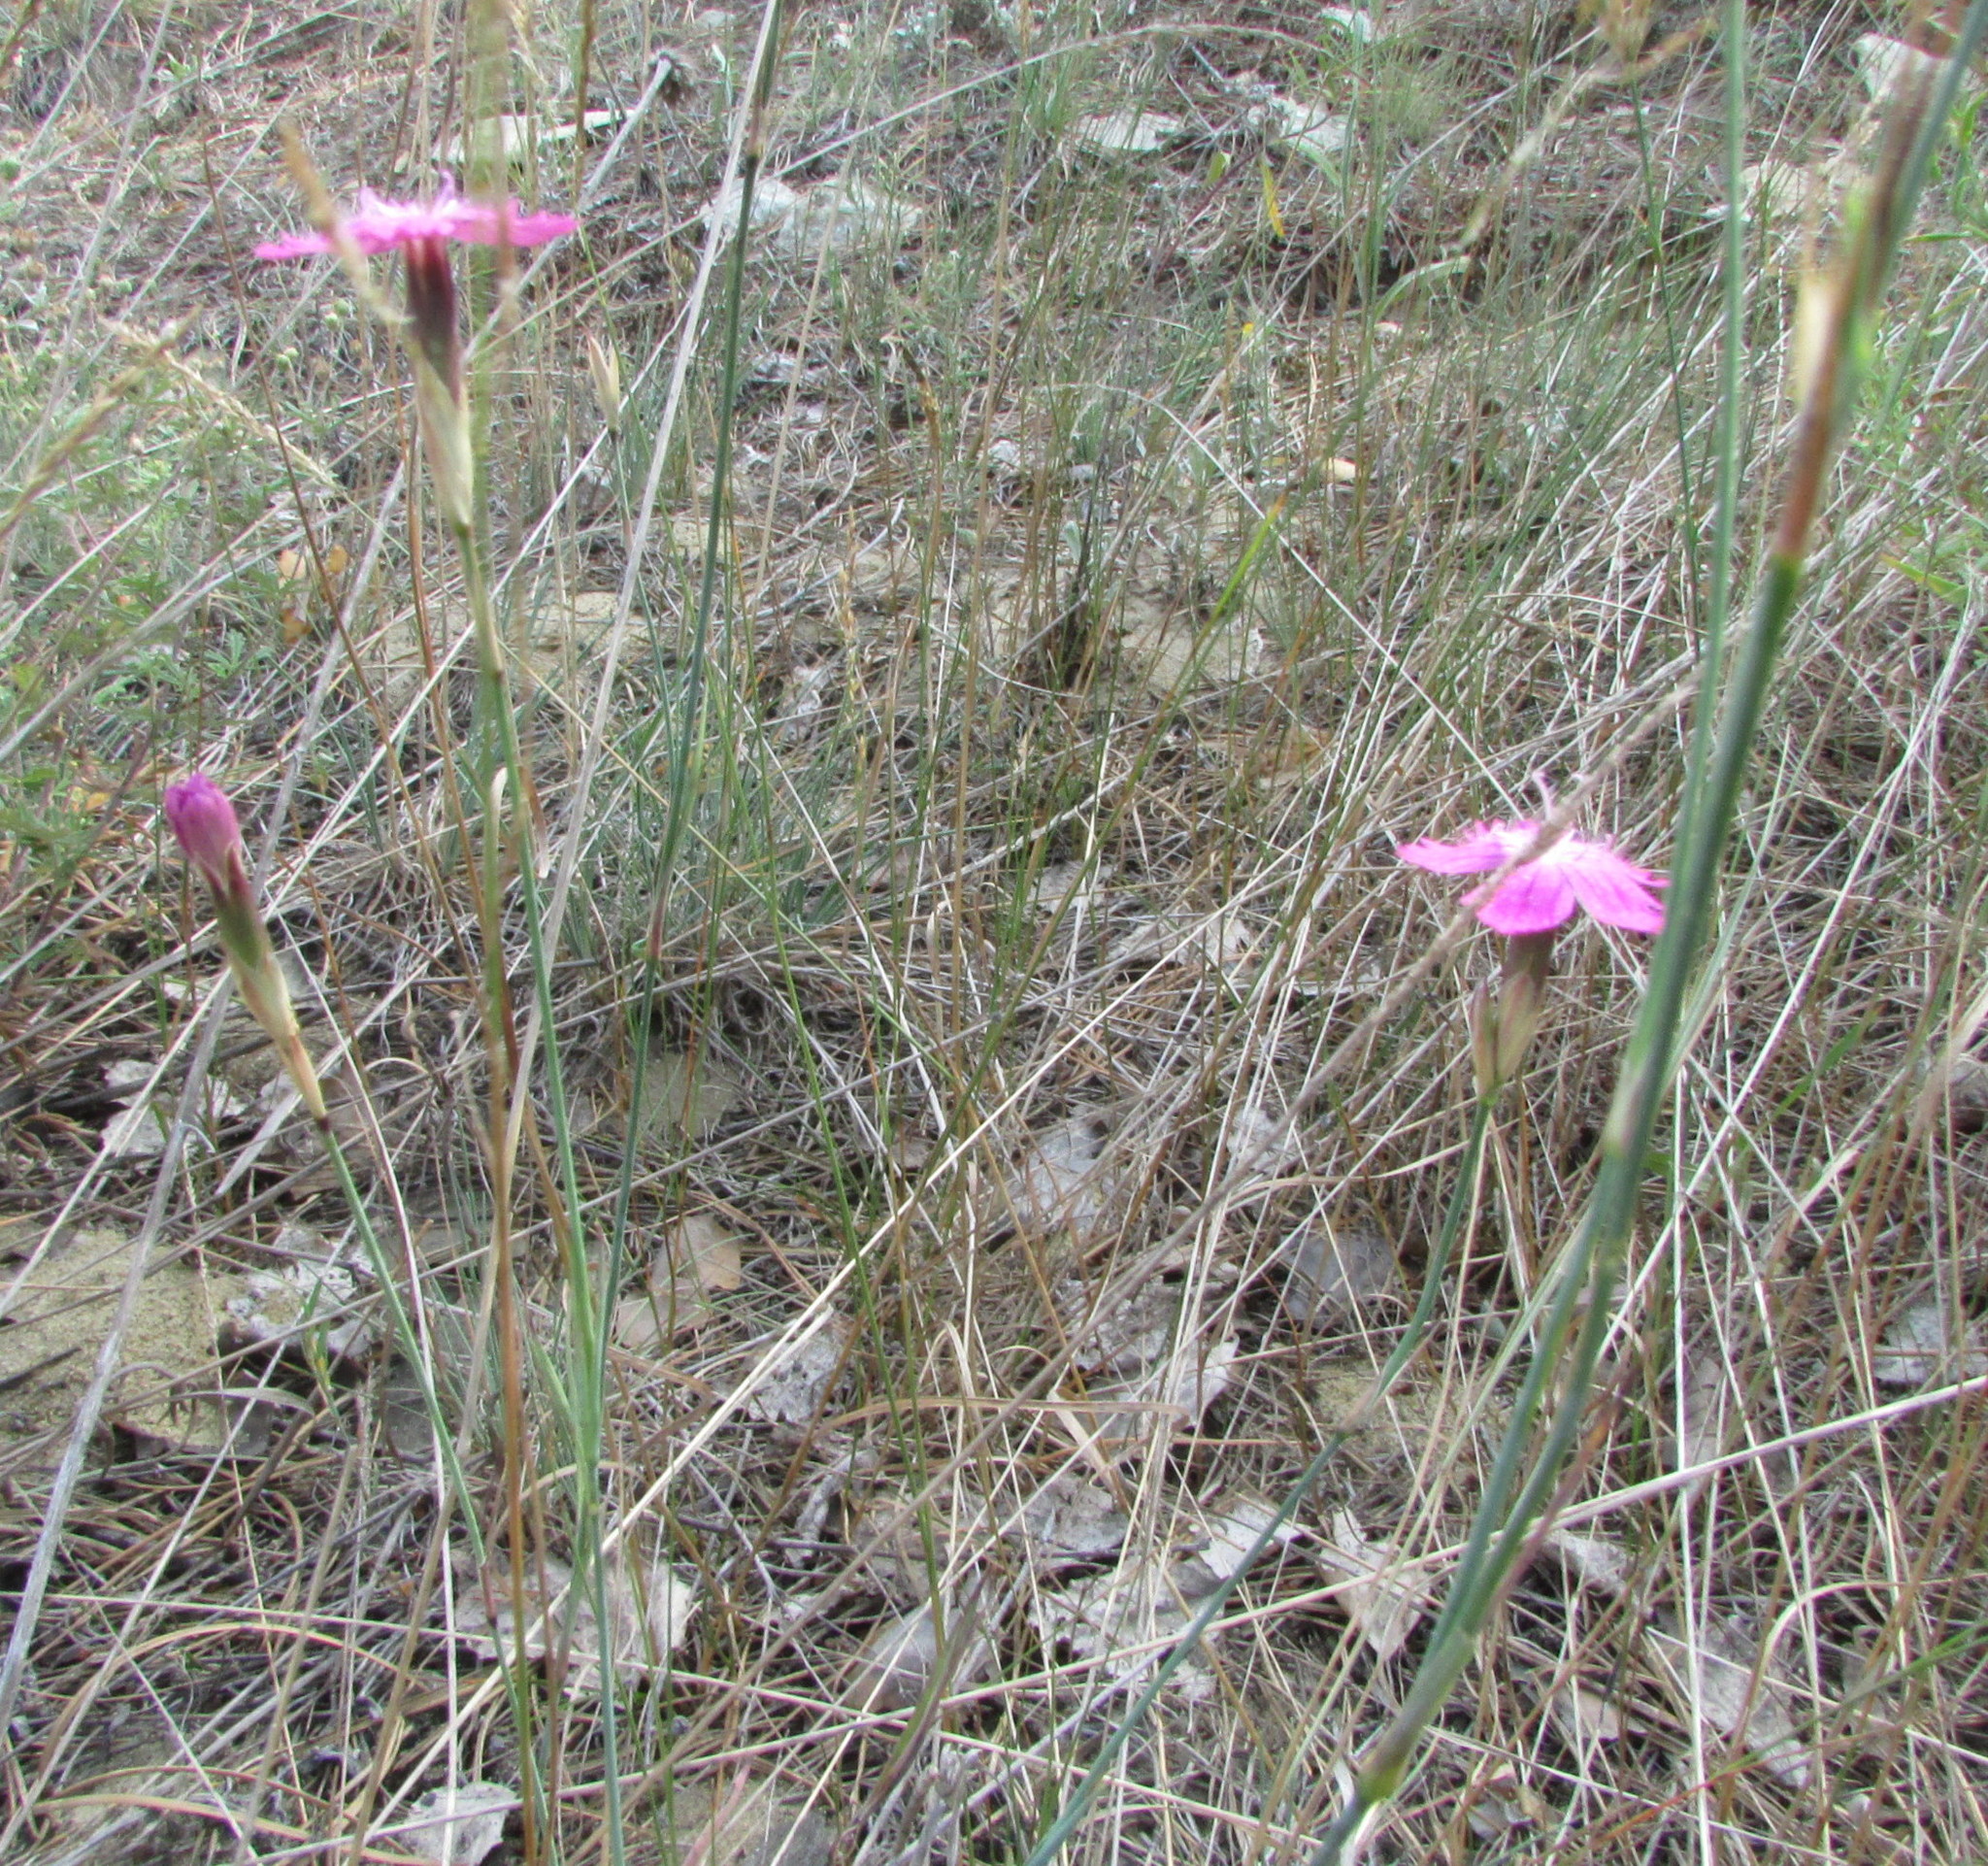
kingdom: Plantae
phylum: Tracheophyta
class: Magnoliopsida
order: Caryophyllales
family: Caryophyllaceae
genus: Dianthus
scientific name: Dianthus borbasii
